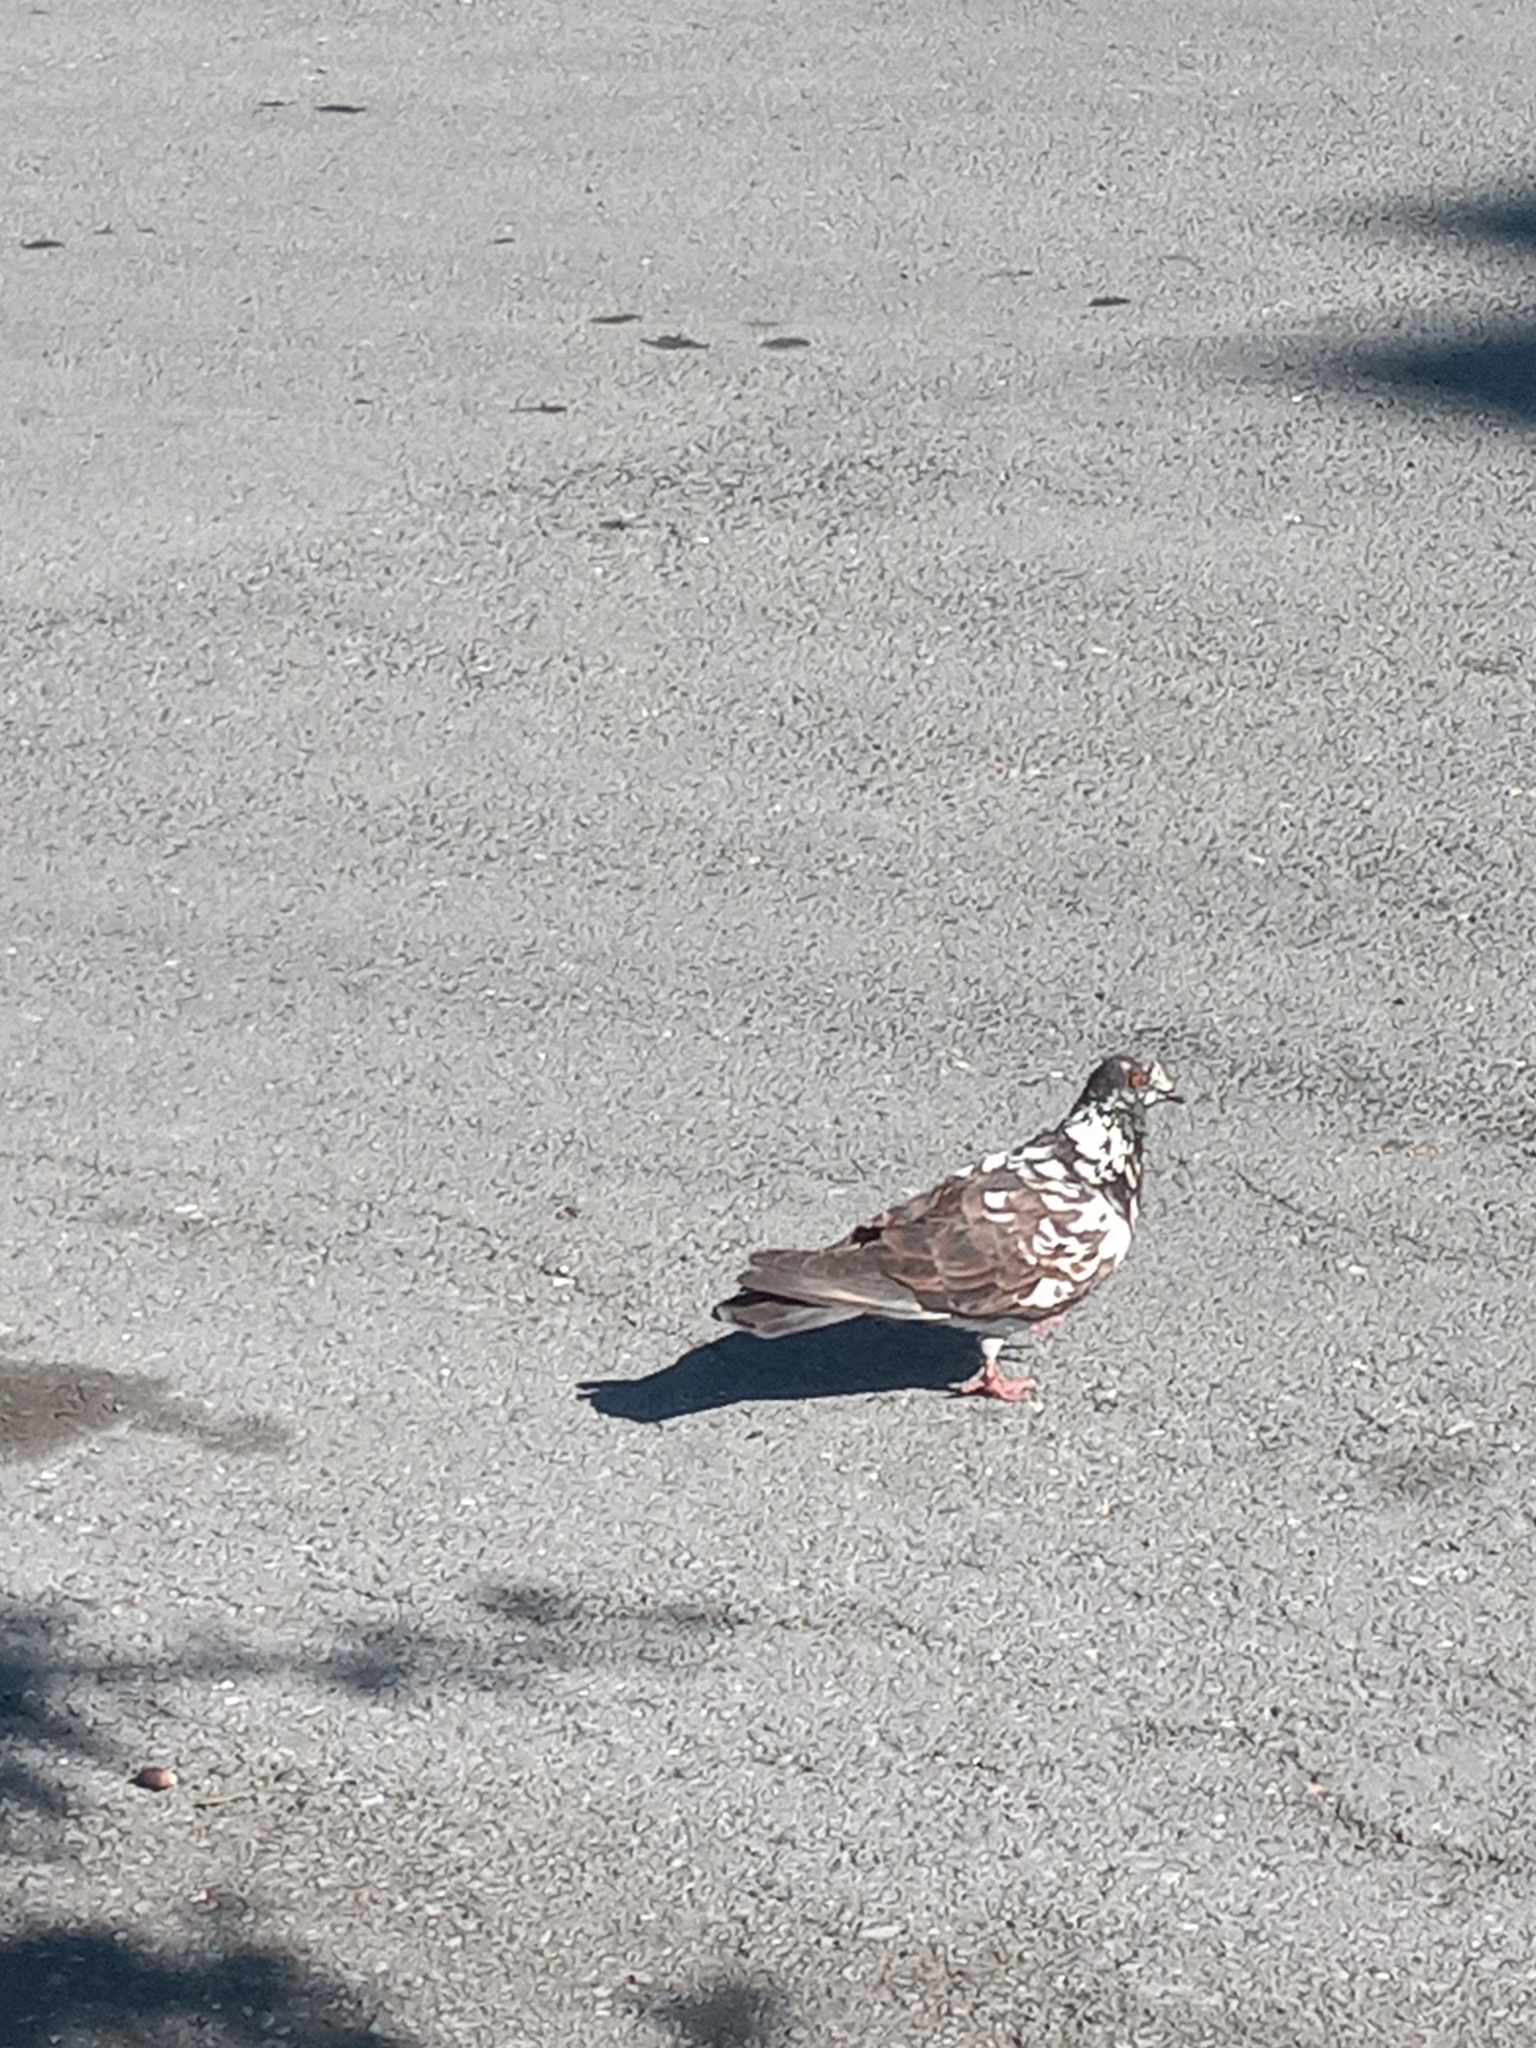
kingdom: Animalia
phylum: Chordata
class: Aves
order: Columbiformes
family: Columbidae
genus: Columba
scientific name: Columba livia
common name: Rock pigeon
